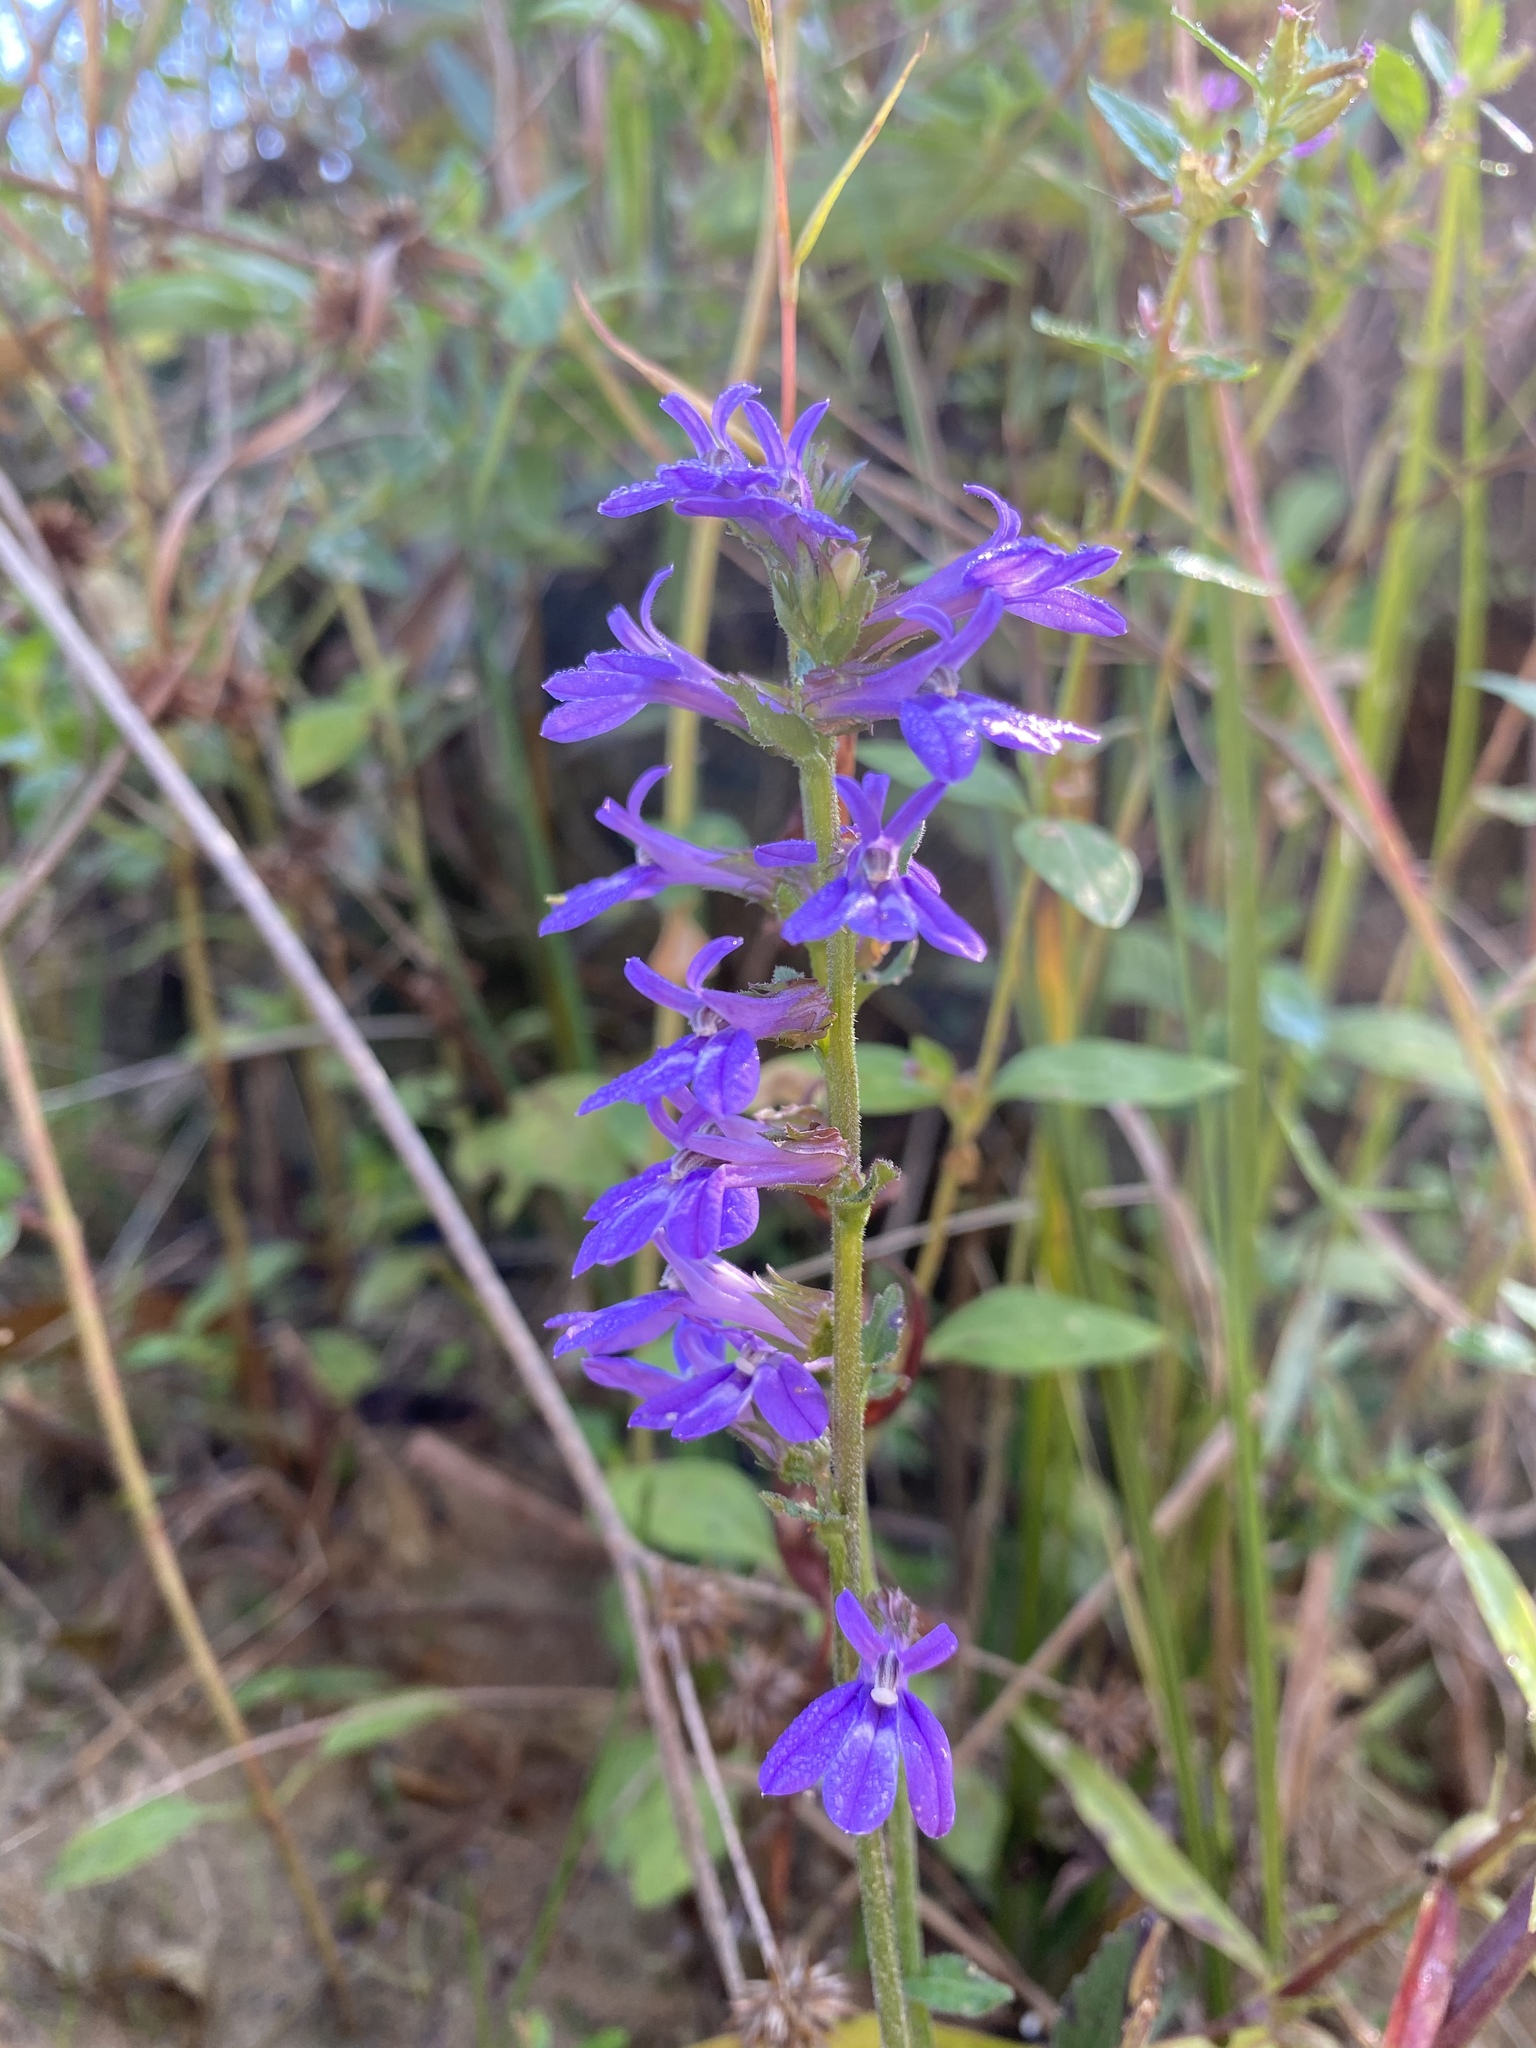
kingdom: Plantae
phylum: Tracheophyta
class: Magnoliopsida
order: Asterales
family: Campanulaceae
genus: Lobelia
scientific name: Lobelia puberula
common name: Purple dewdrop
